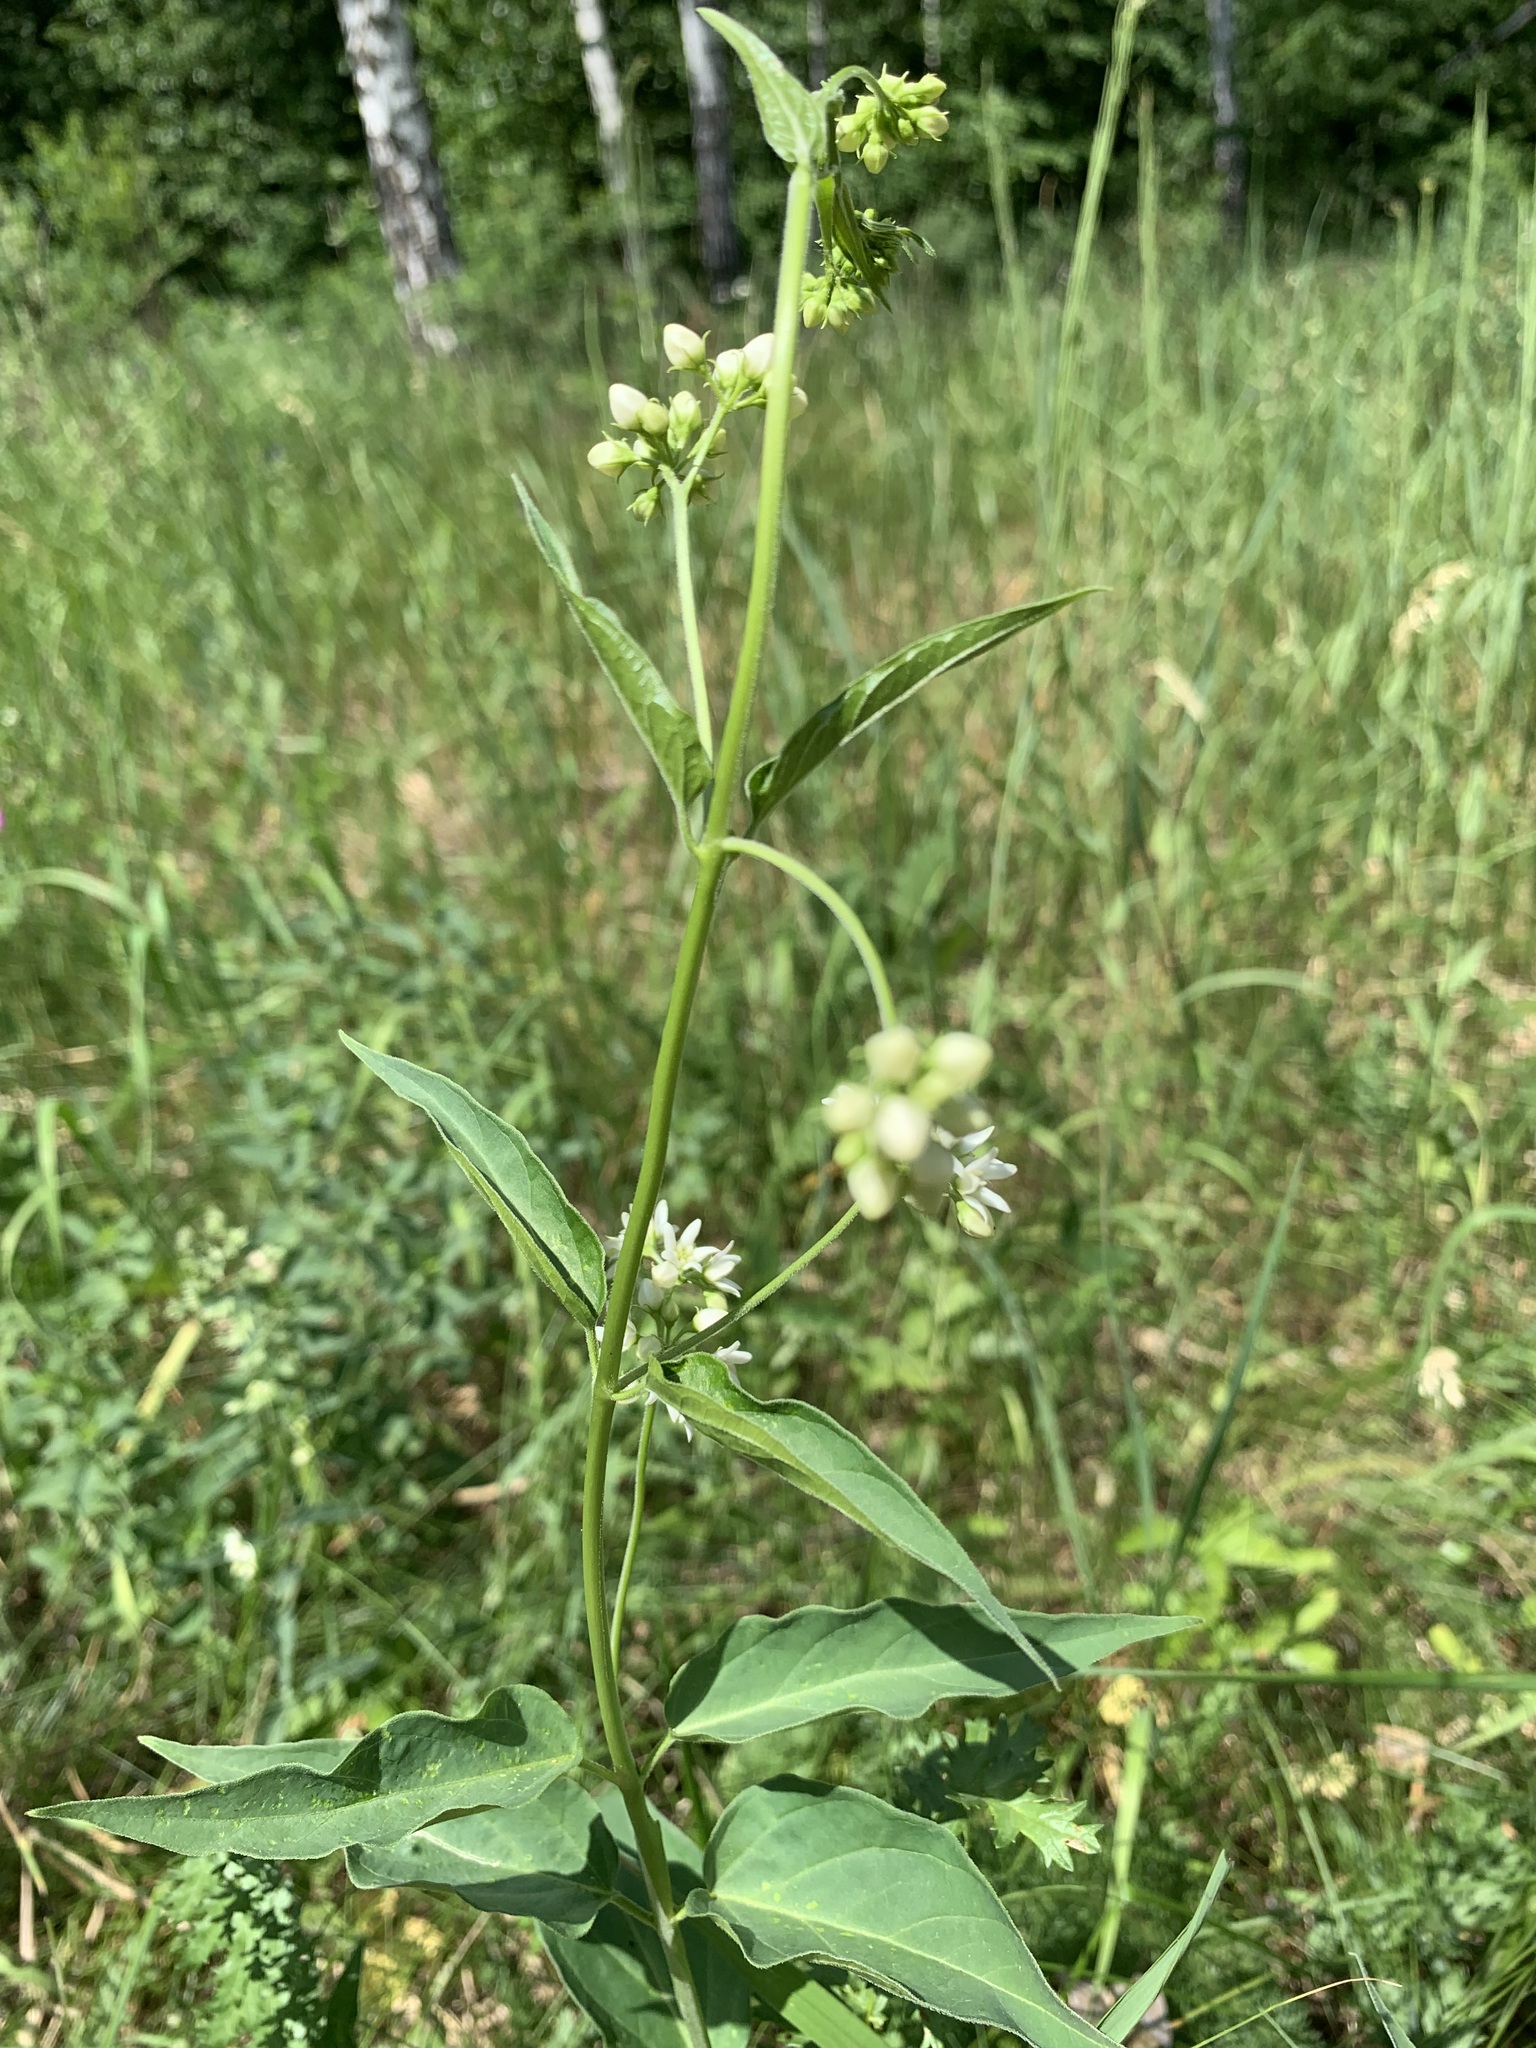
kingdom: Plantae
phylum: Tracheophyta
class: Magnoliopsida
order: Gentianales
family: Apocynaceae
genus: Vincetoxicum
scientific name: Vincetoxicum hirundinaria
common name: White swallowwort
